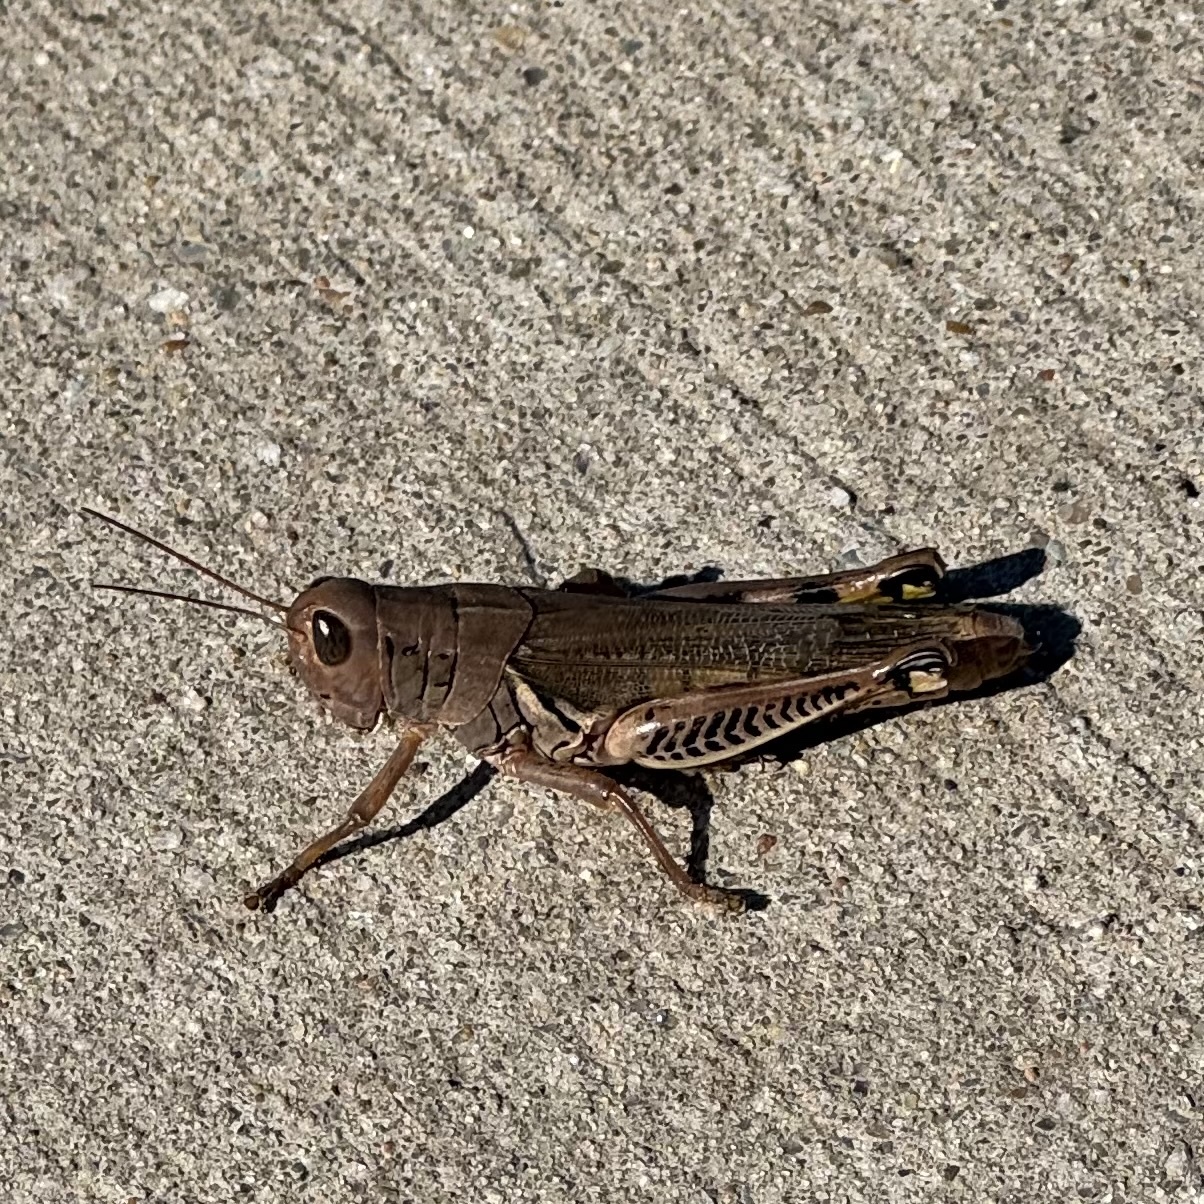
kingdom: Animalia
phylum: Arthropoda
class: Insecta
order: Orthoptera
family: Acrididae
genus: Melanoplus
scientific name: Melanoplus differentialis
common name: Differential grasshopper
